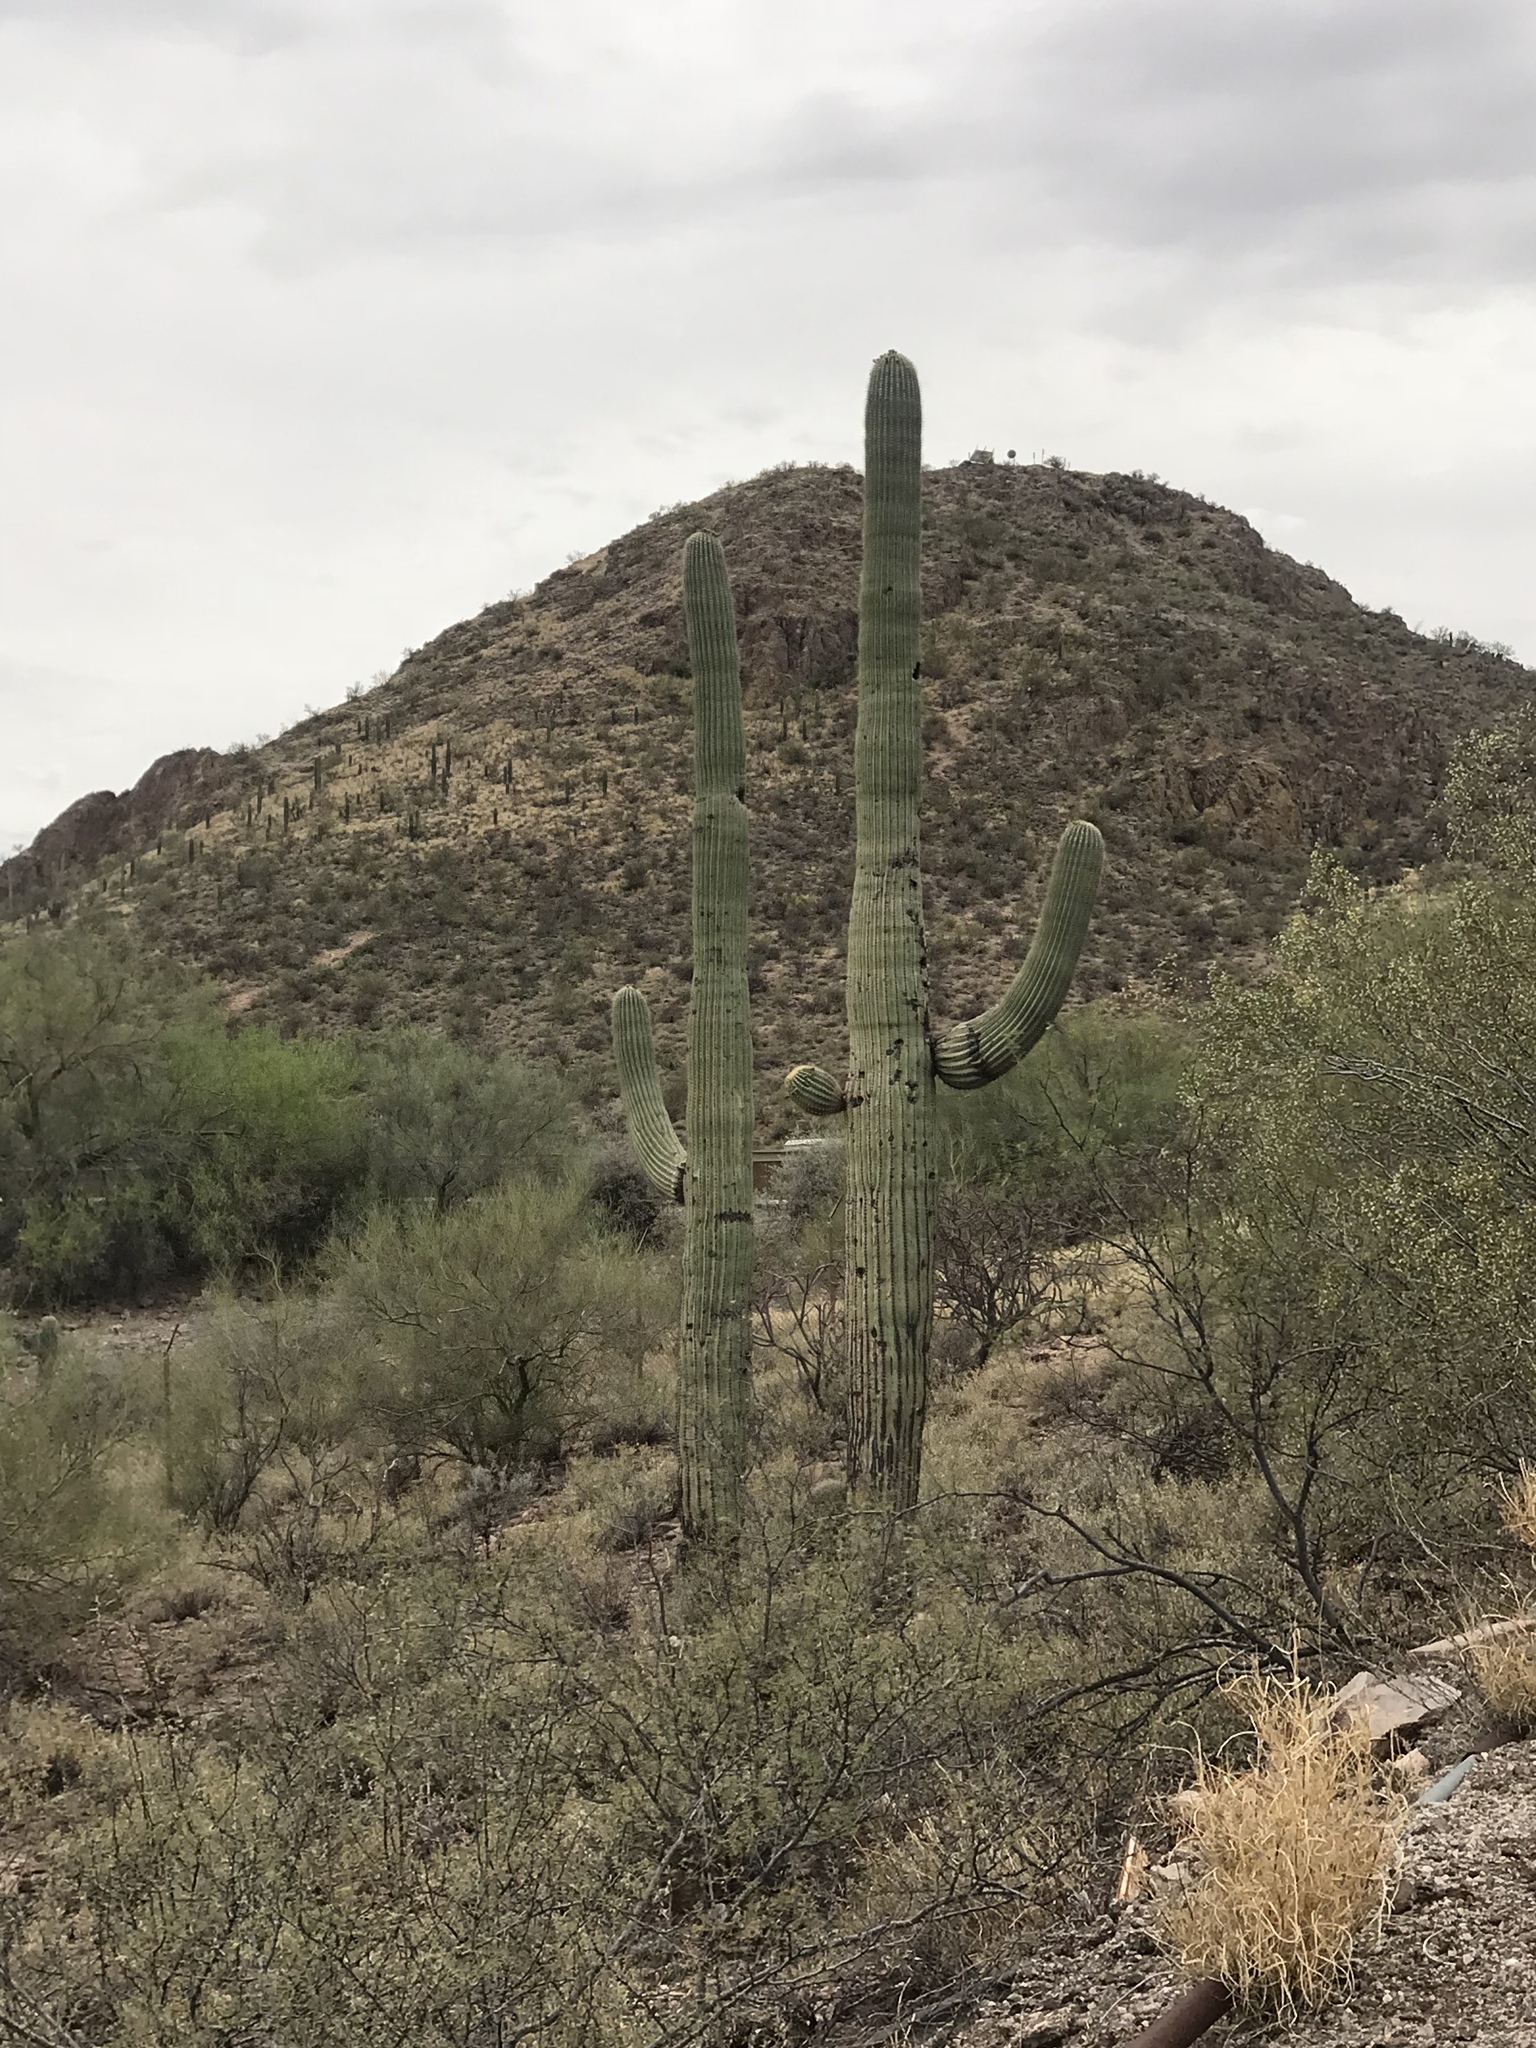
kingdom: Plantae
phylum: Tracheophyta
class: Magnoliopsida
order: Caryophyllales
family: Cactaceae
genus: Carnegiea
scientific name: Carnegiea gigantea
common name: Saguaro
